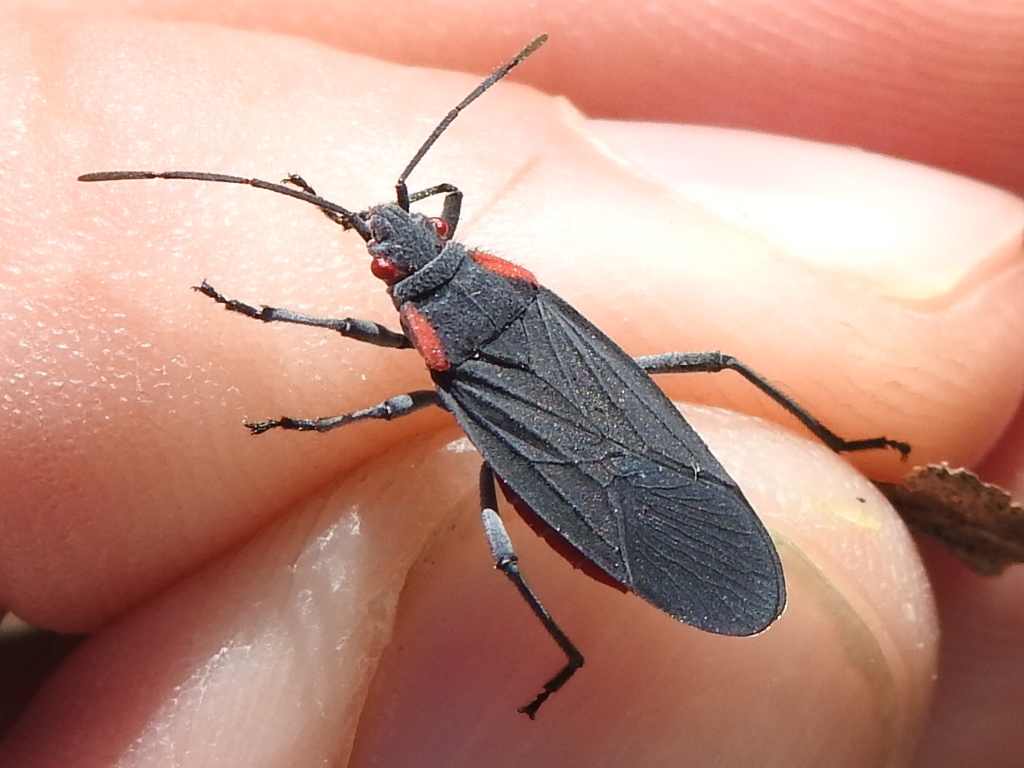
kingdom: Animalia
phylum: Arthropoda
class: Insecta
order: Hemiptera
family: Rhopalidae
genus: Jadera
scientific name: Jadera haematoloma
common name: Red-shouldered bug
